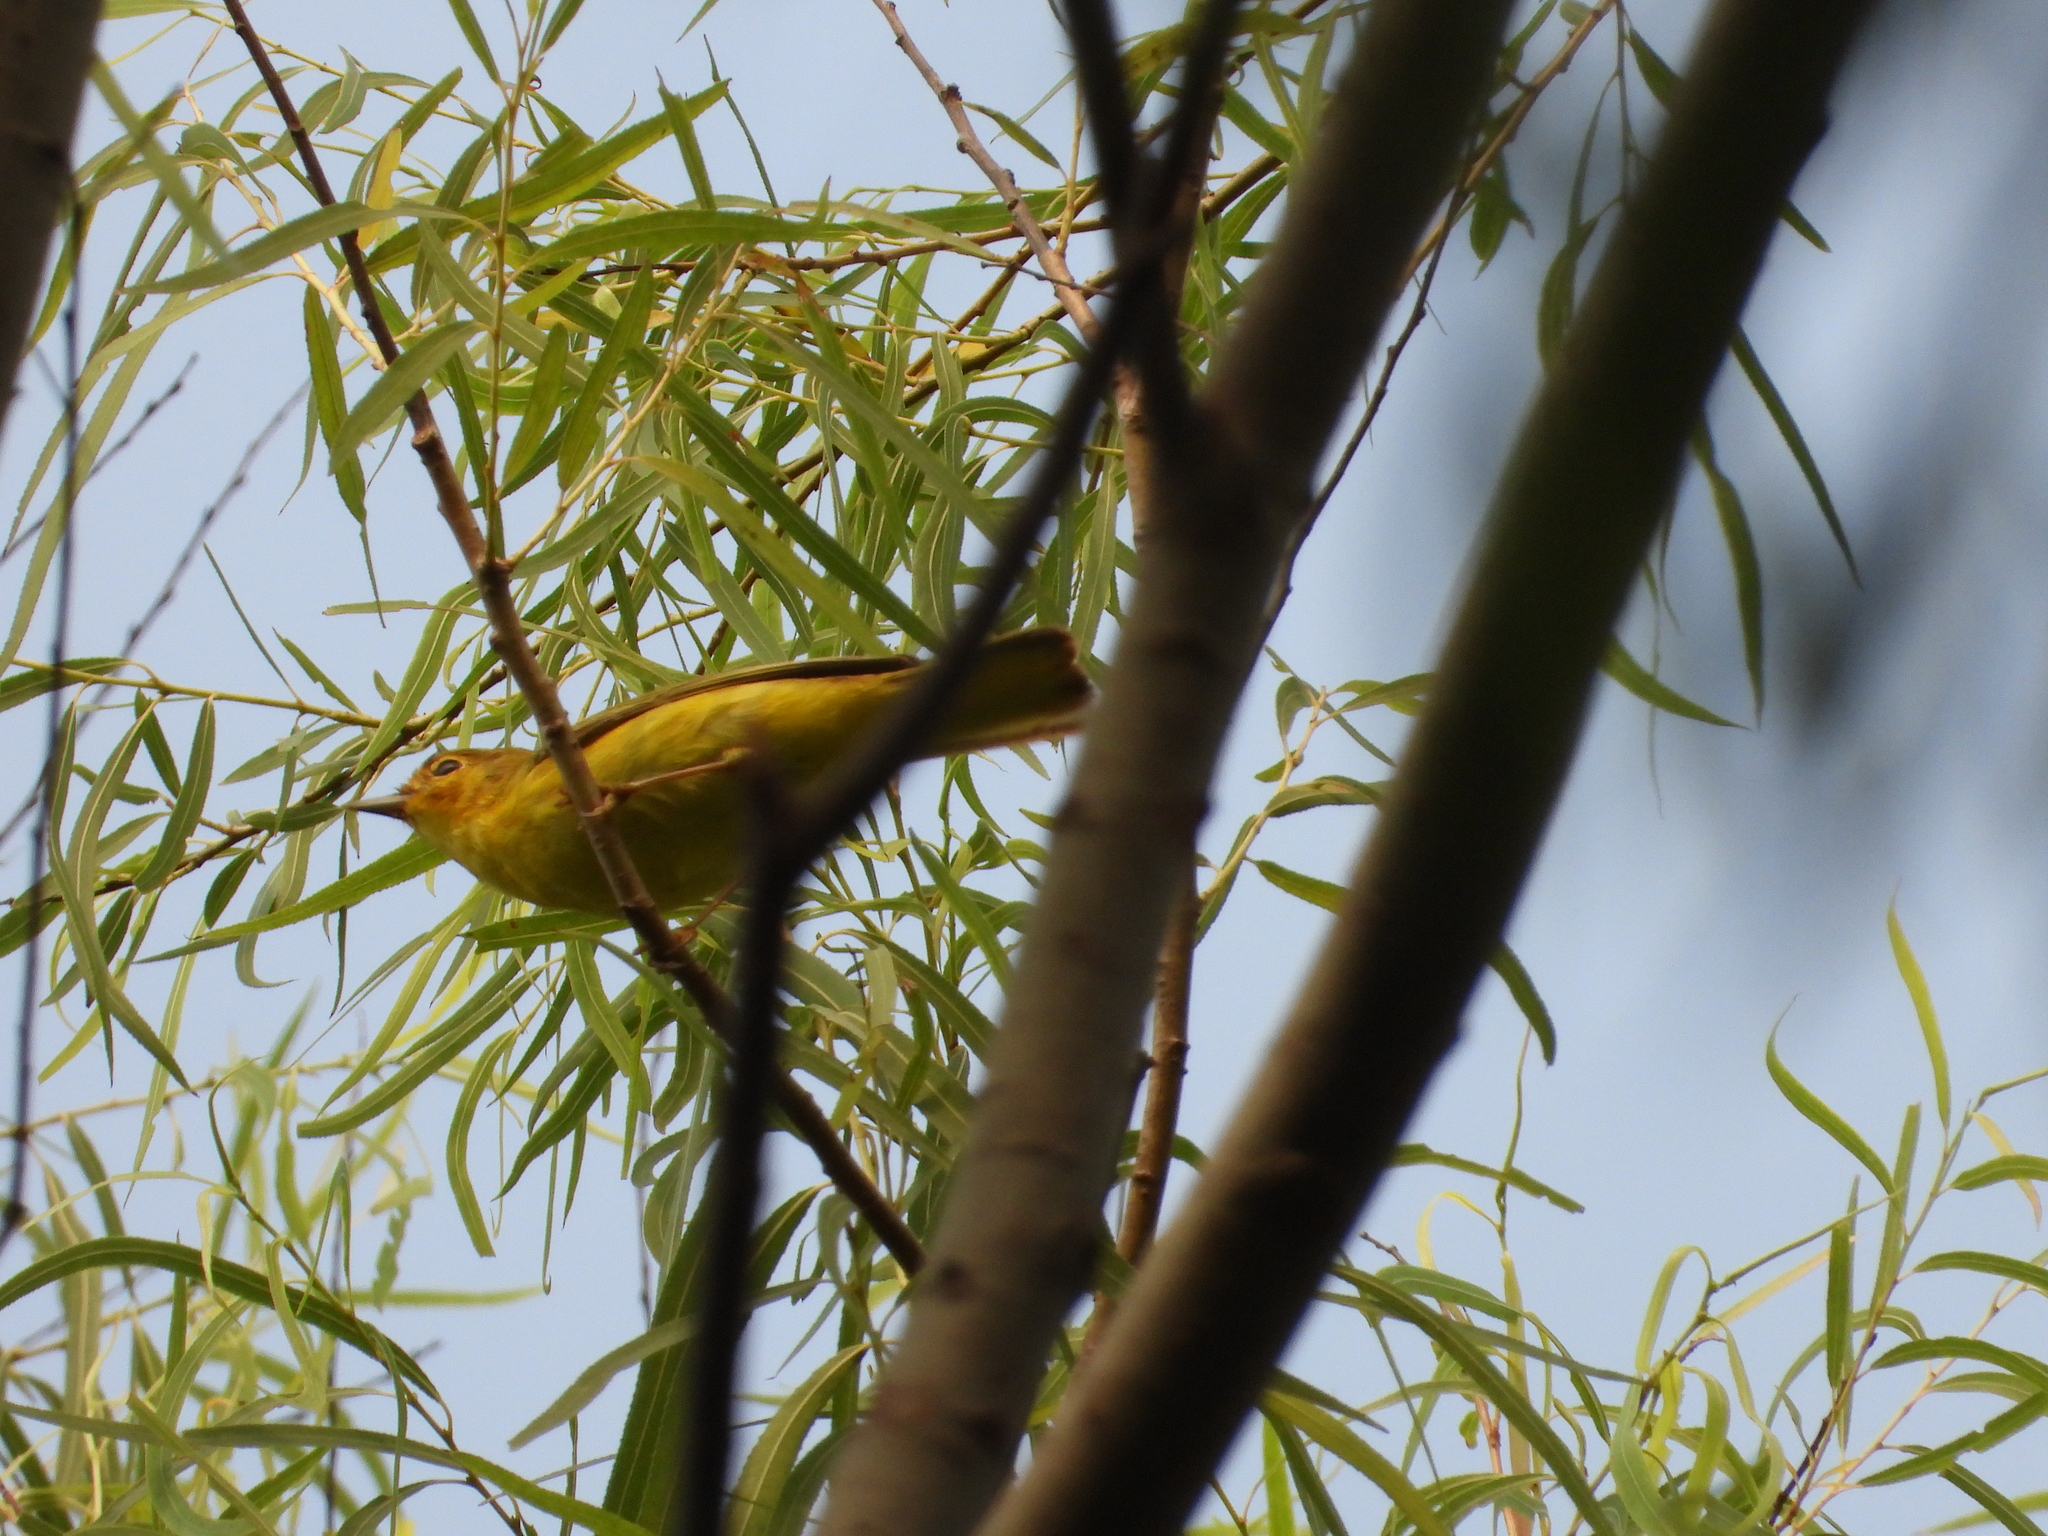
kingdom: Animalia
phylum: Chordata
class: Aves
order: Passeriformes
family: Parulidae
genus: Setophaga
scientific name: Setophaga petechia
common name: Yellow warbler
